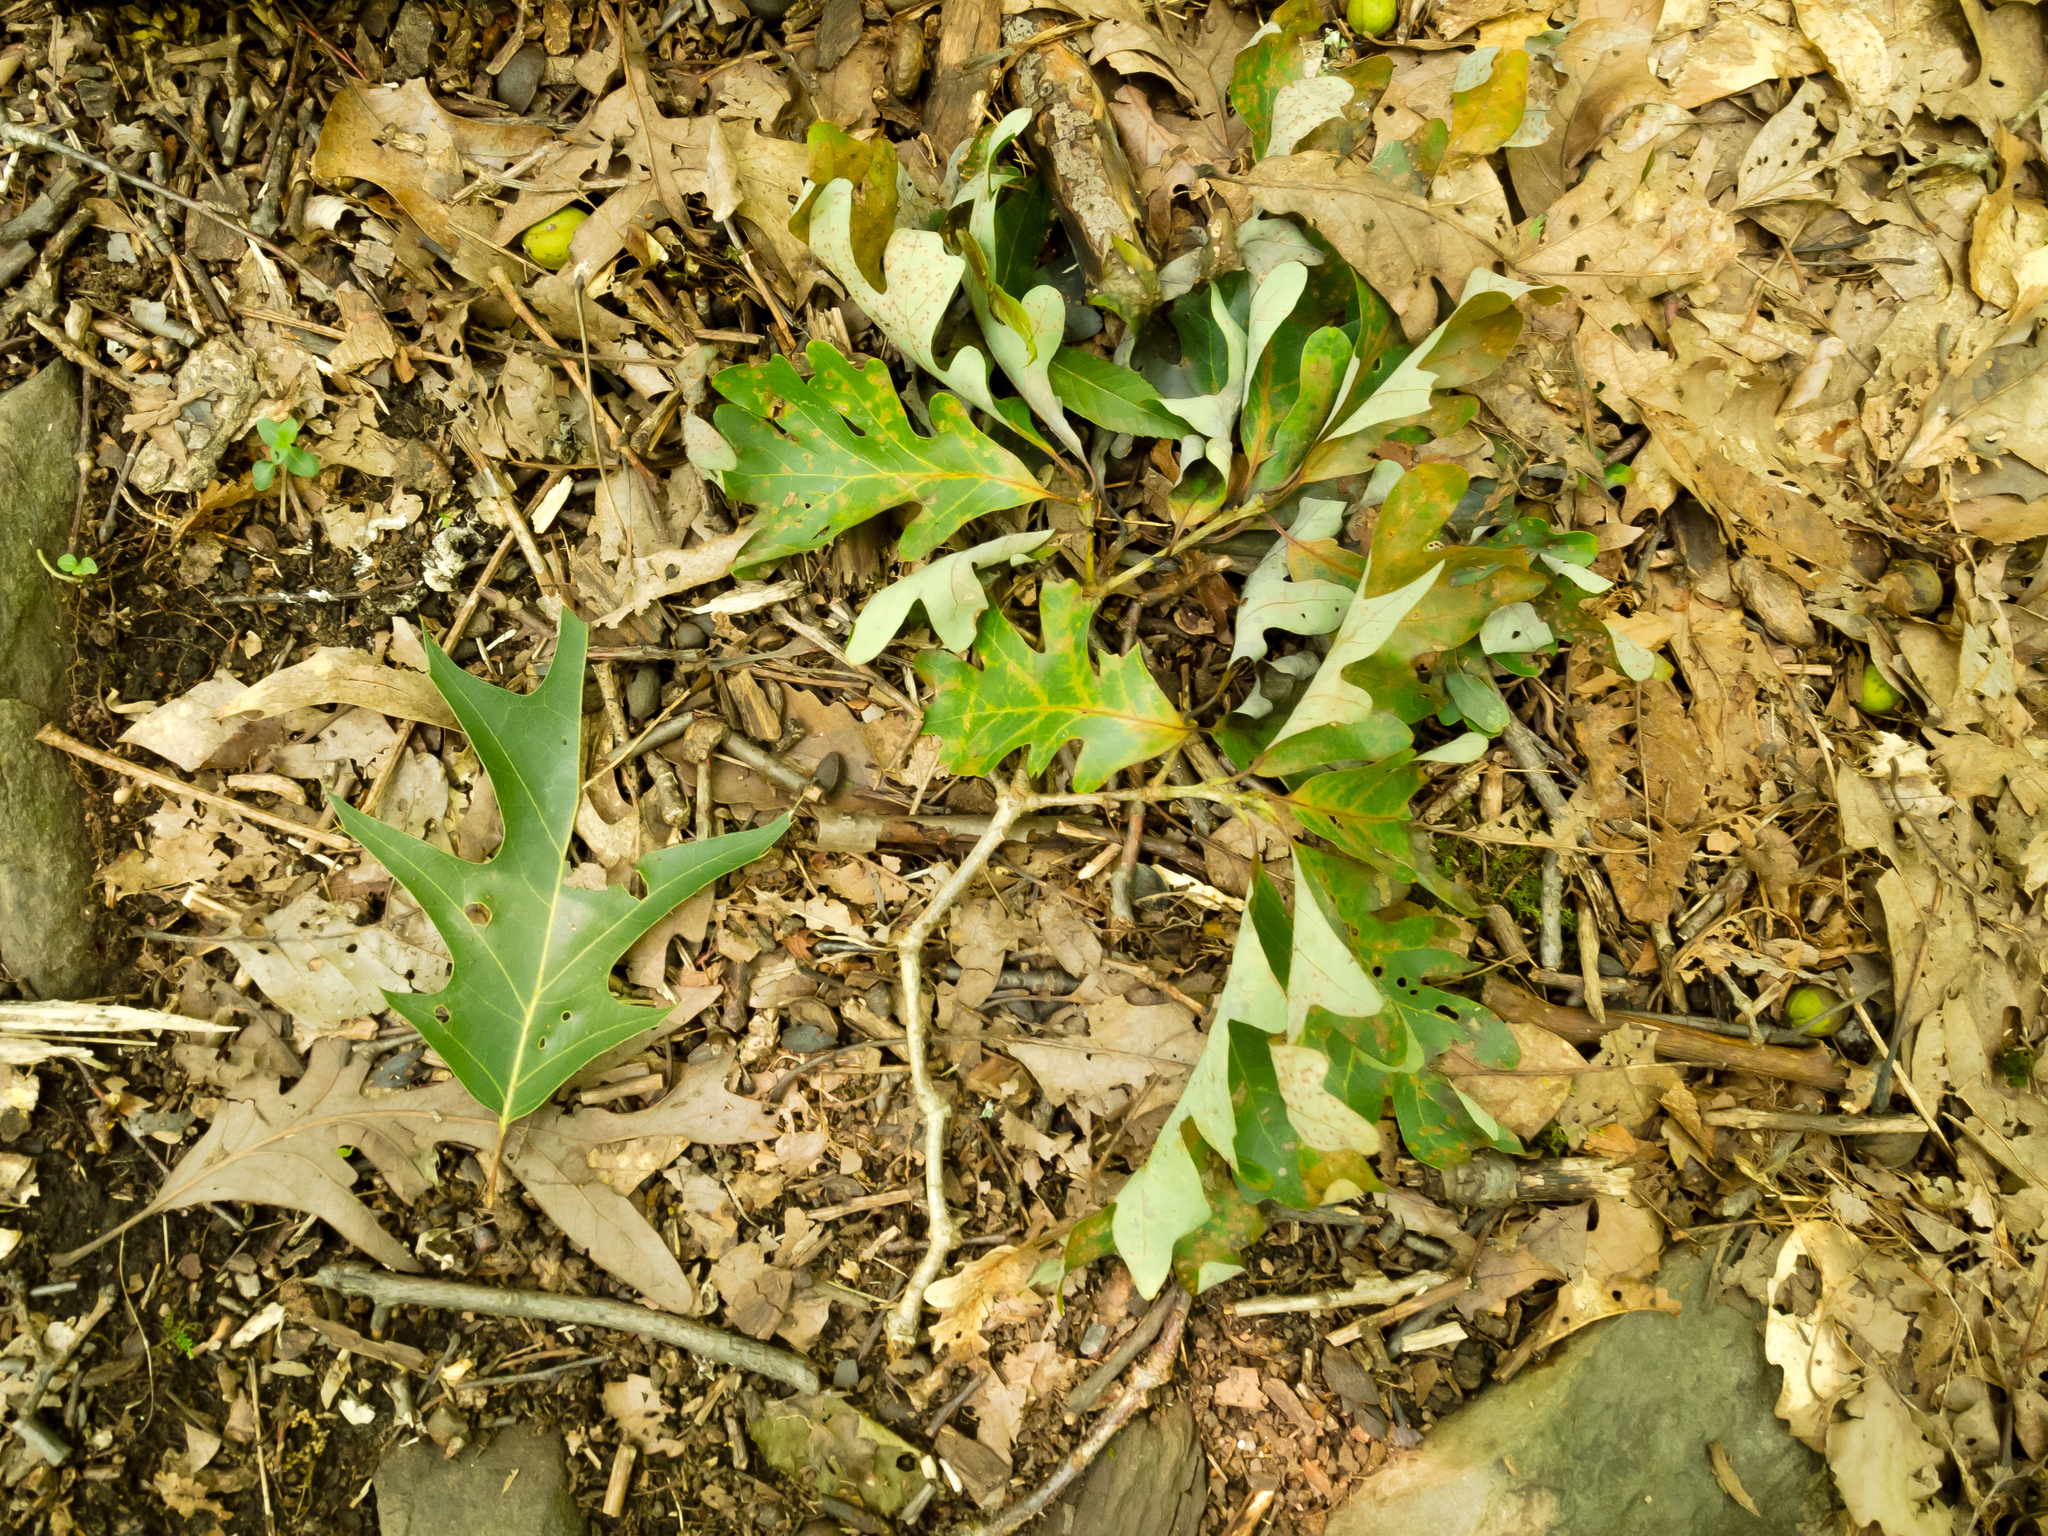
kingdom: Plantae
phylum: Tracheophyta
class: Magnoliopsida
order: Fagales
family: Fagaceae
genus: Quercus
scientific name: Quercus alba
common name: White oak
